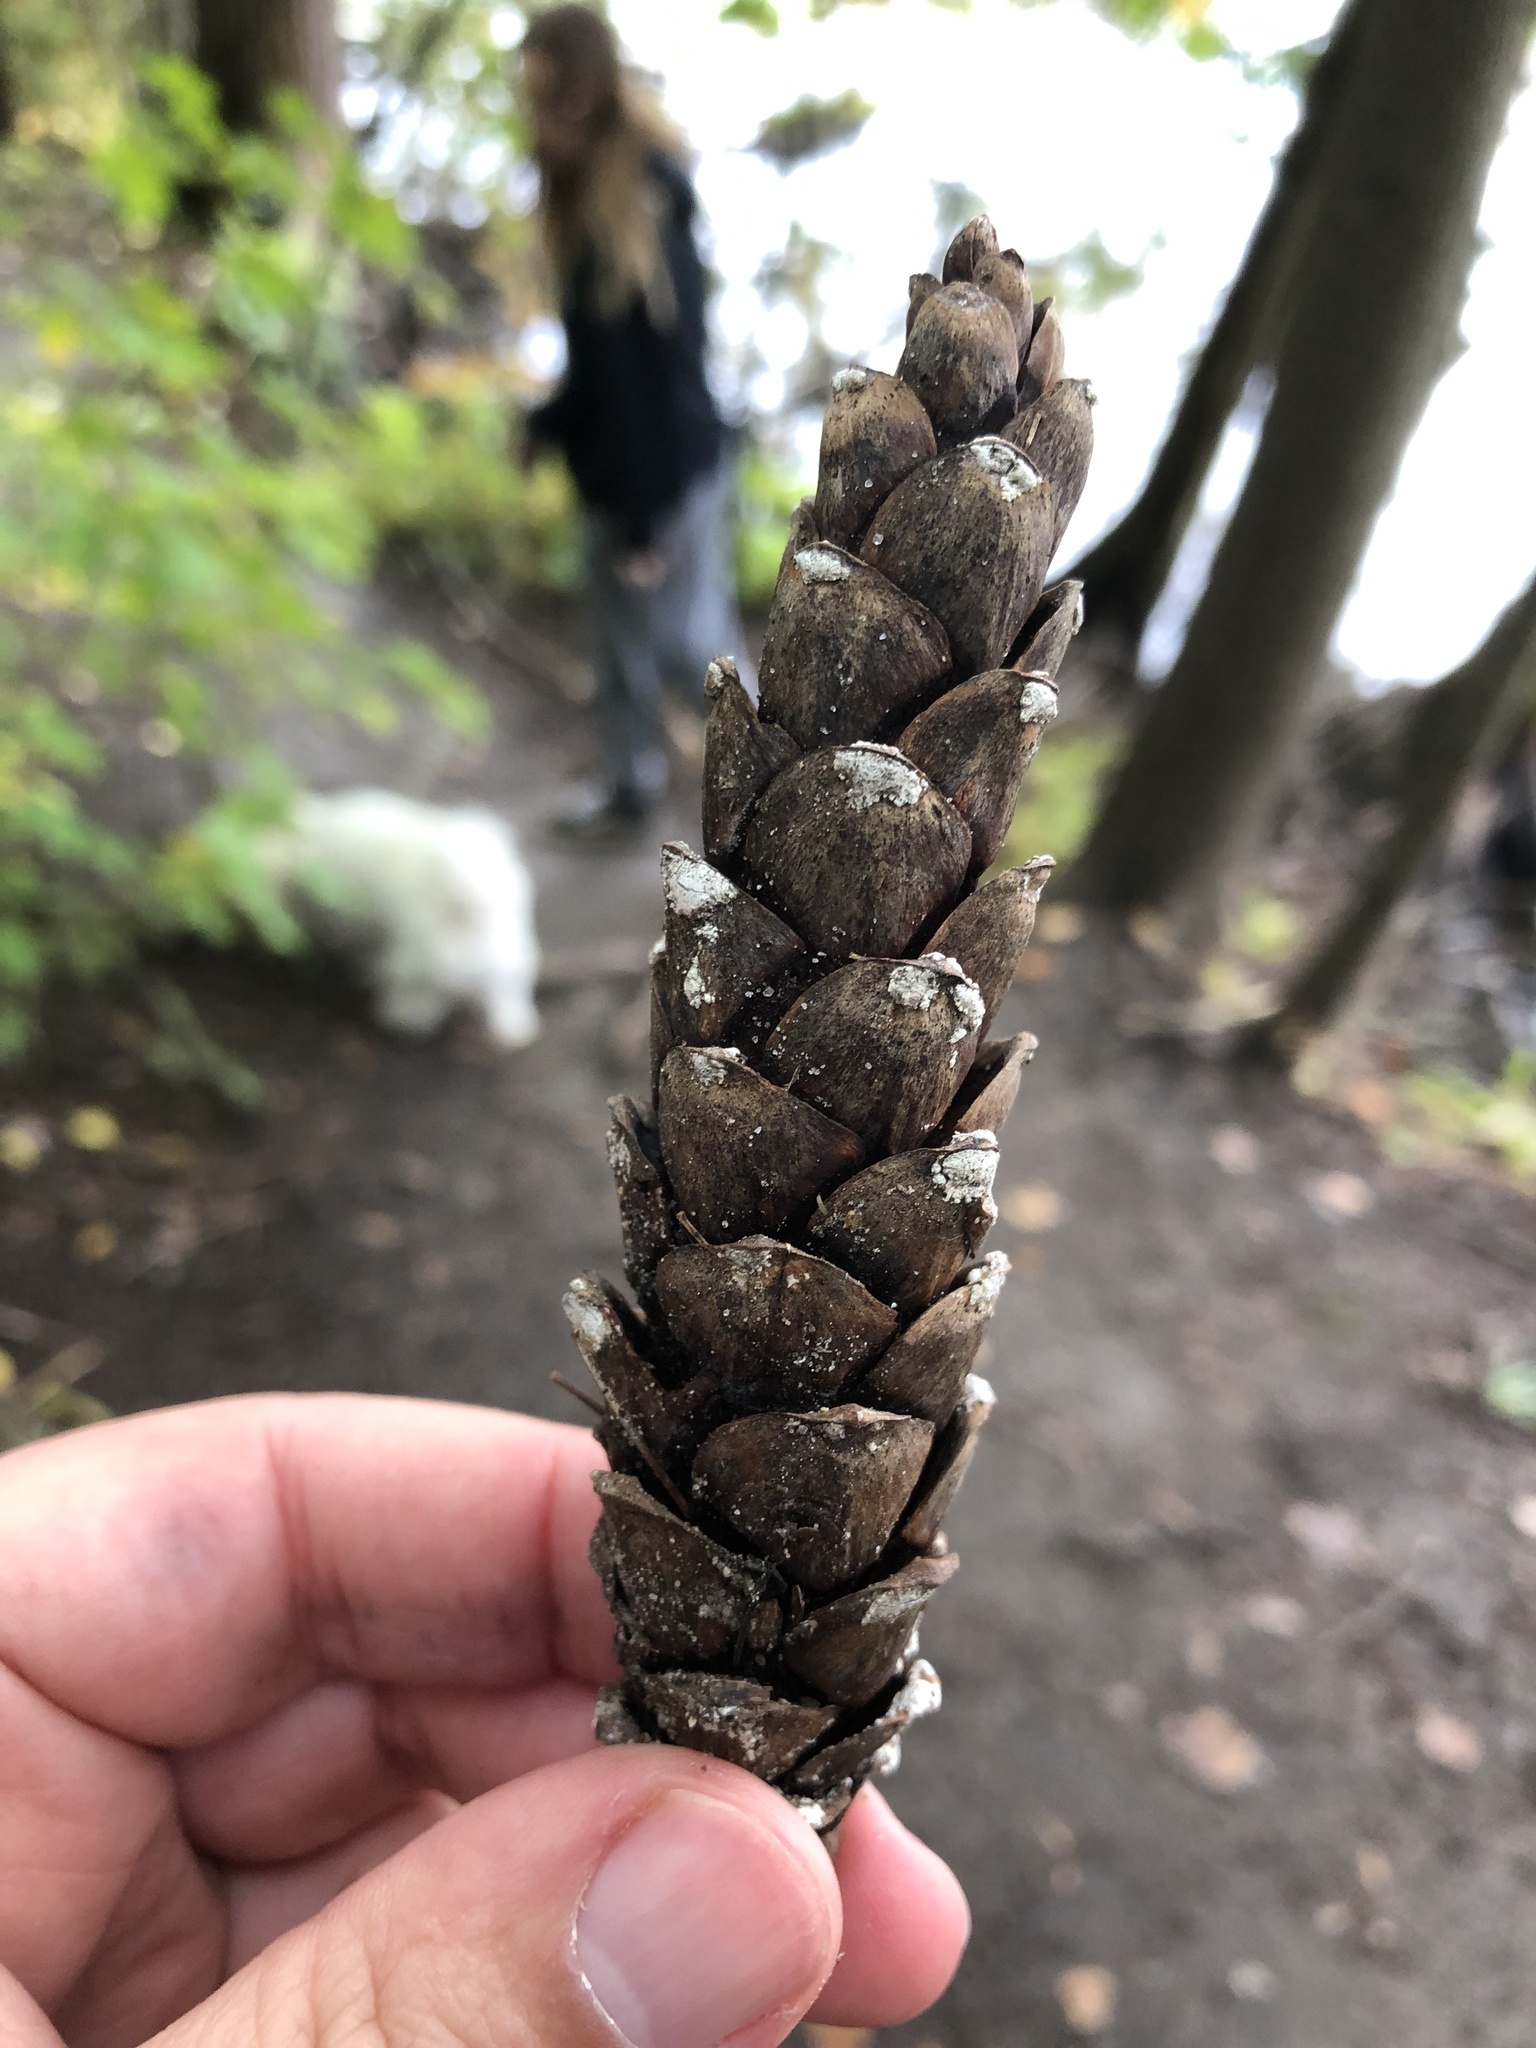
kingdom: Plantae
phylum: Tracheophyta
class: Pinopsida
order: Pinales
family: Pinaceae
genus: Pinus
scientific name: Pinus strobus
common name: Weymouth pine
